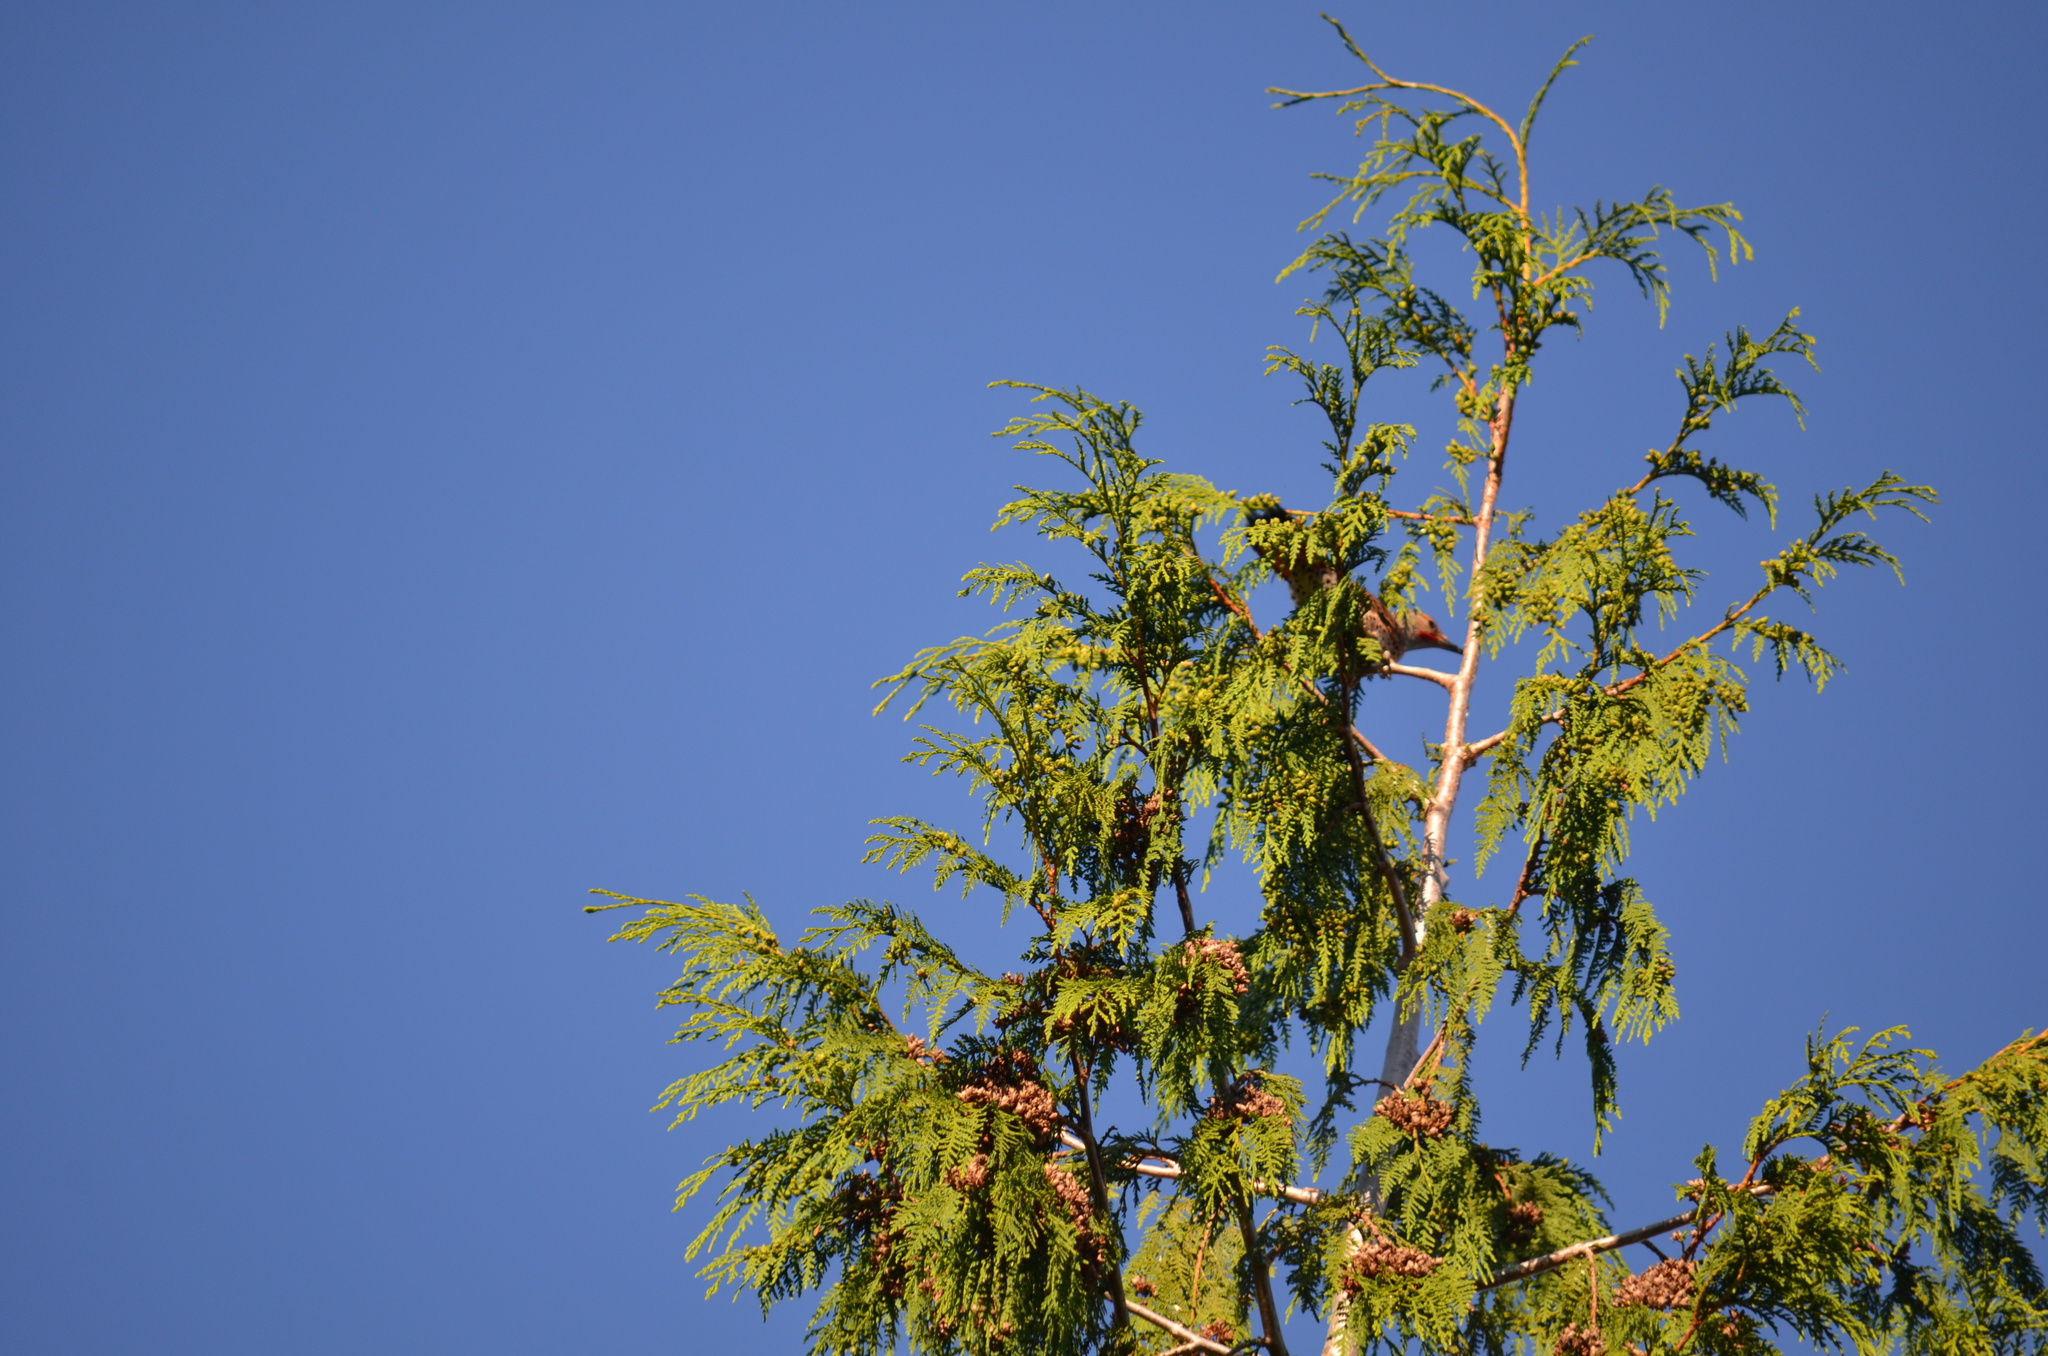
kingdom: Animalia
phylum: Chordata
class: Aves
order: Piciformes
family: Picidae
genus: Colaptes
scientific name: Colaptes auratus
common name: Northern flicker
